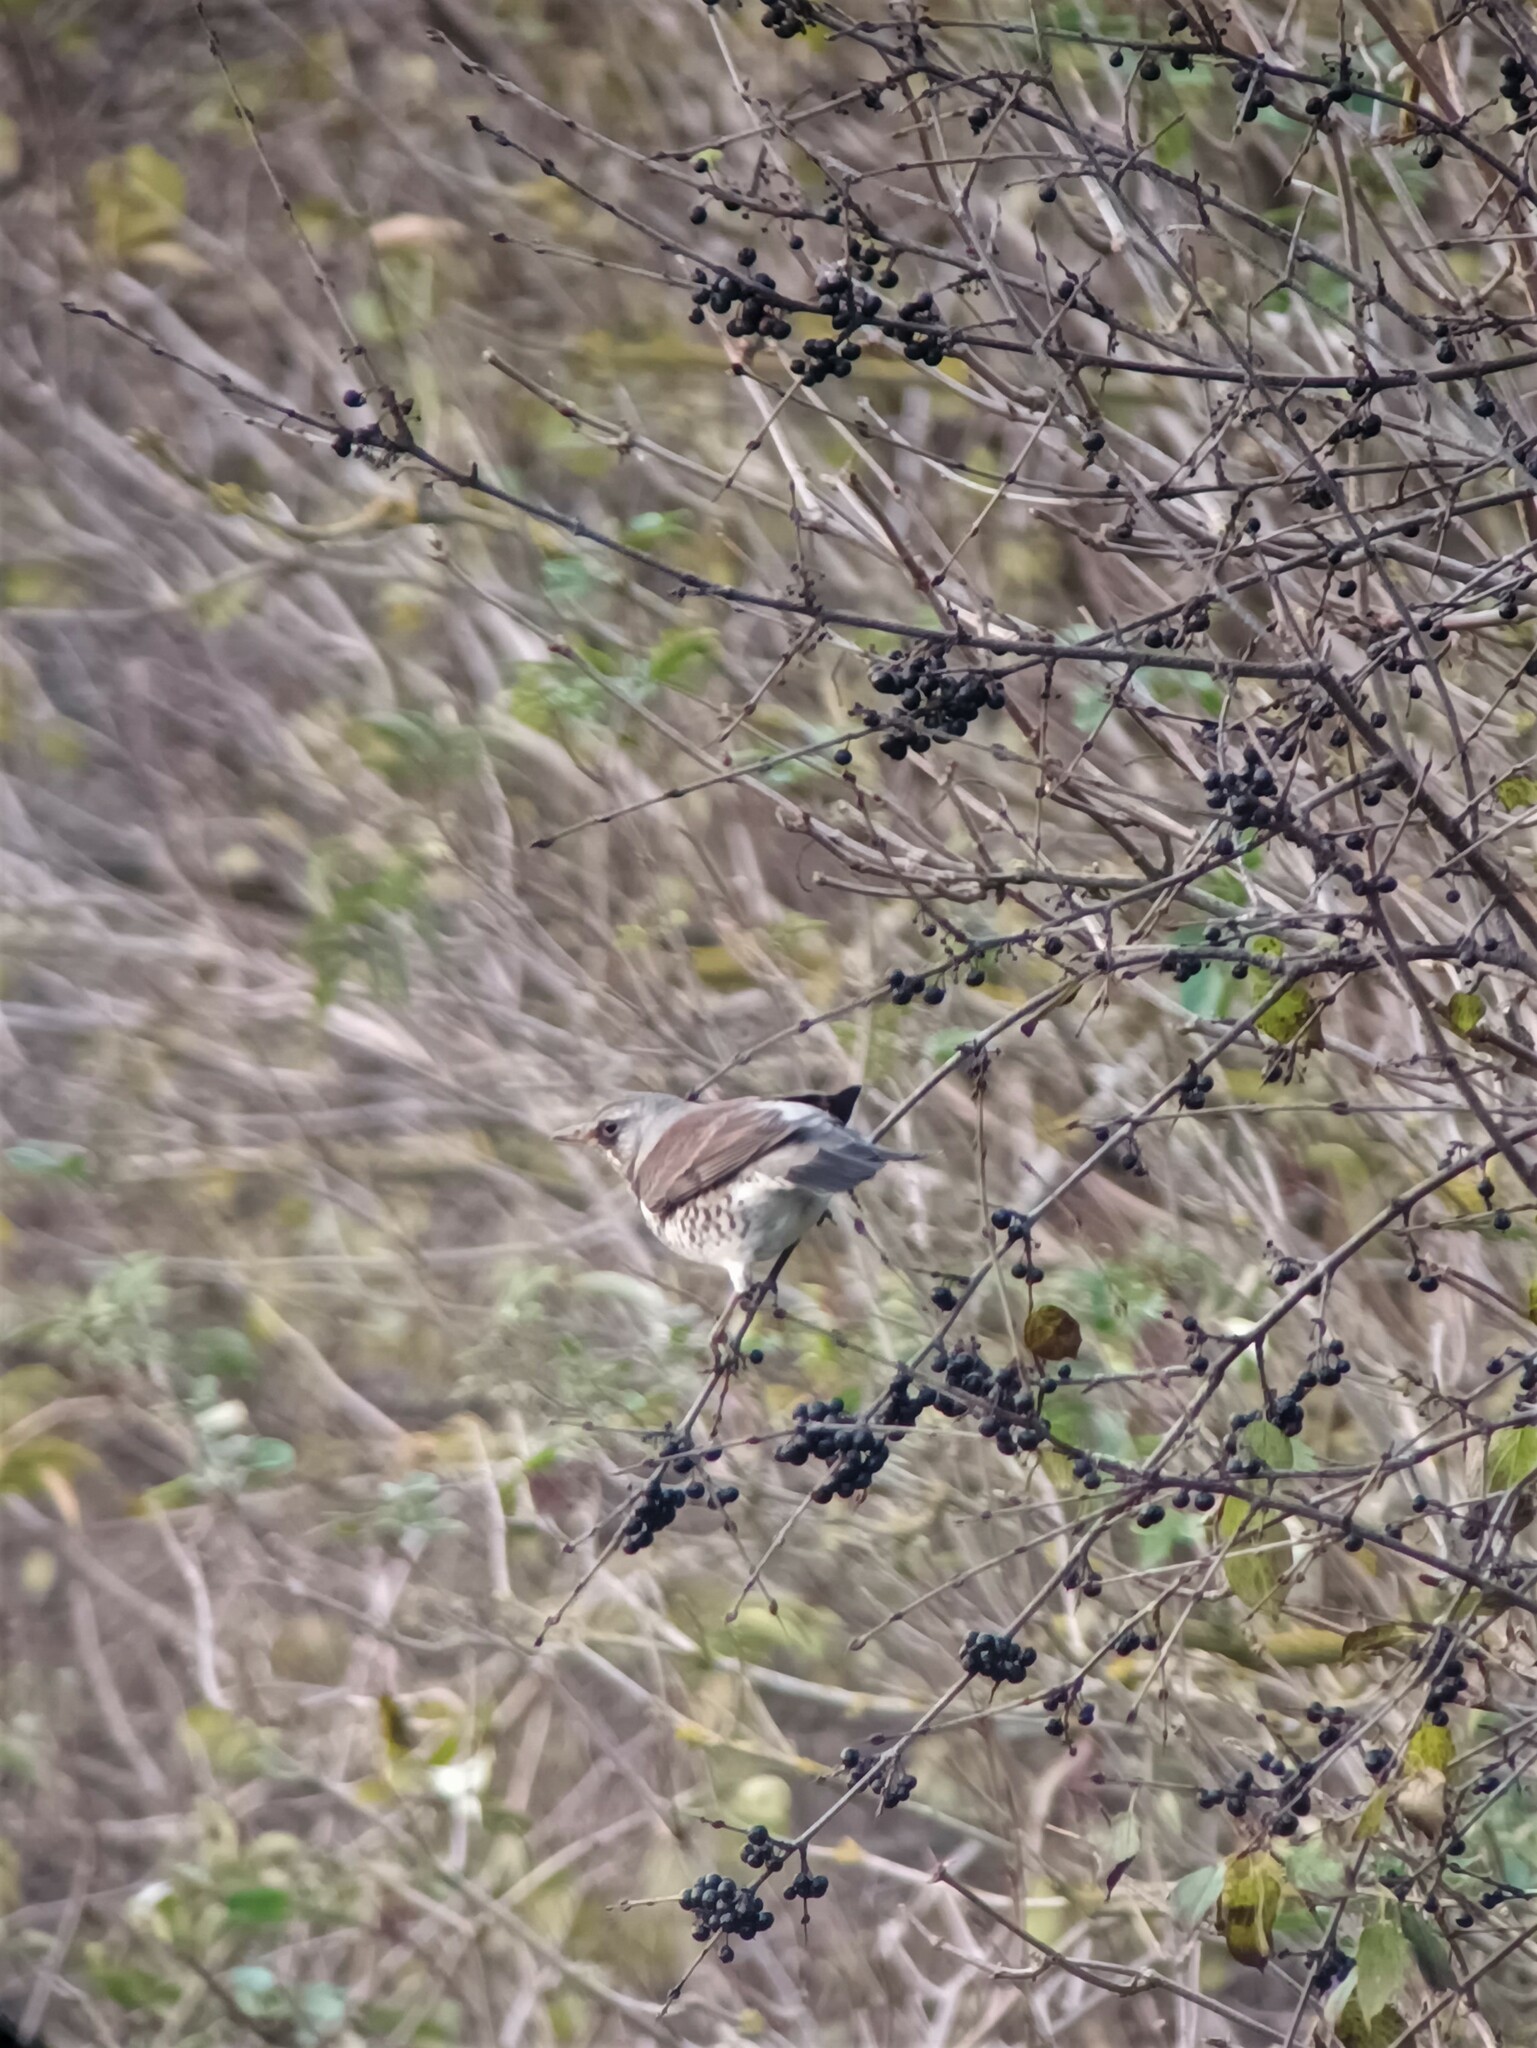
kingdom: Animalia
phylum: Chordata
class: Aves
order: Passeriformes
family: Turdidae
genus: Turdus
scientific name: Turdus pilaris
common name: Fieldfare
